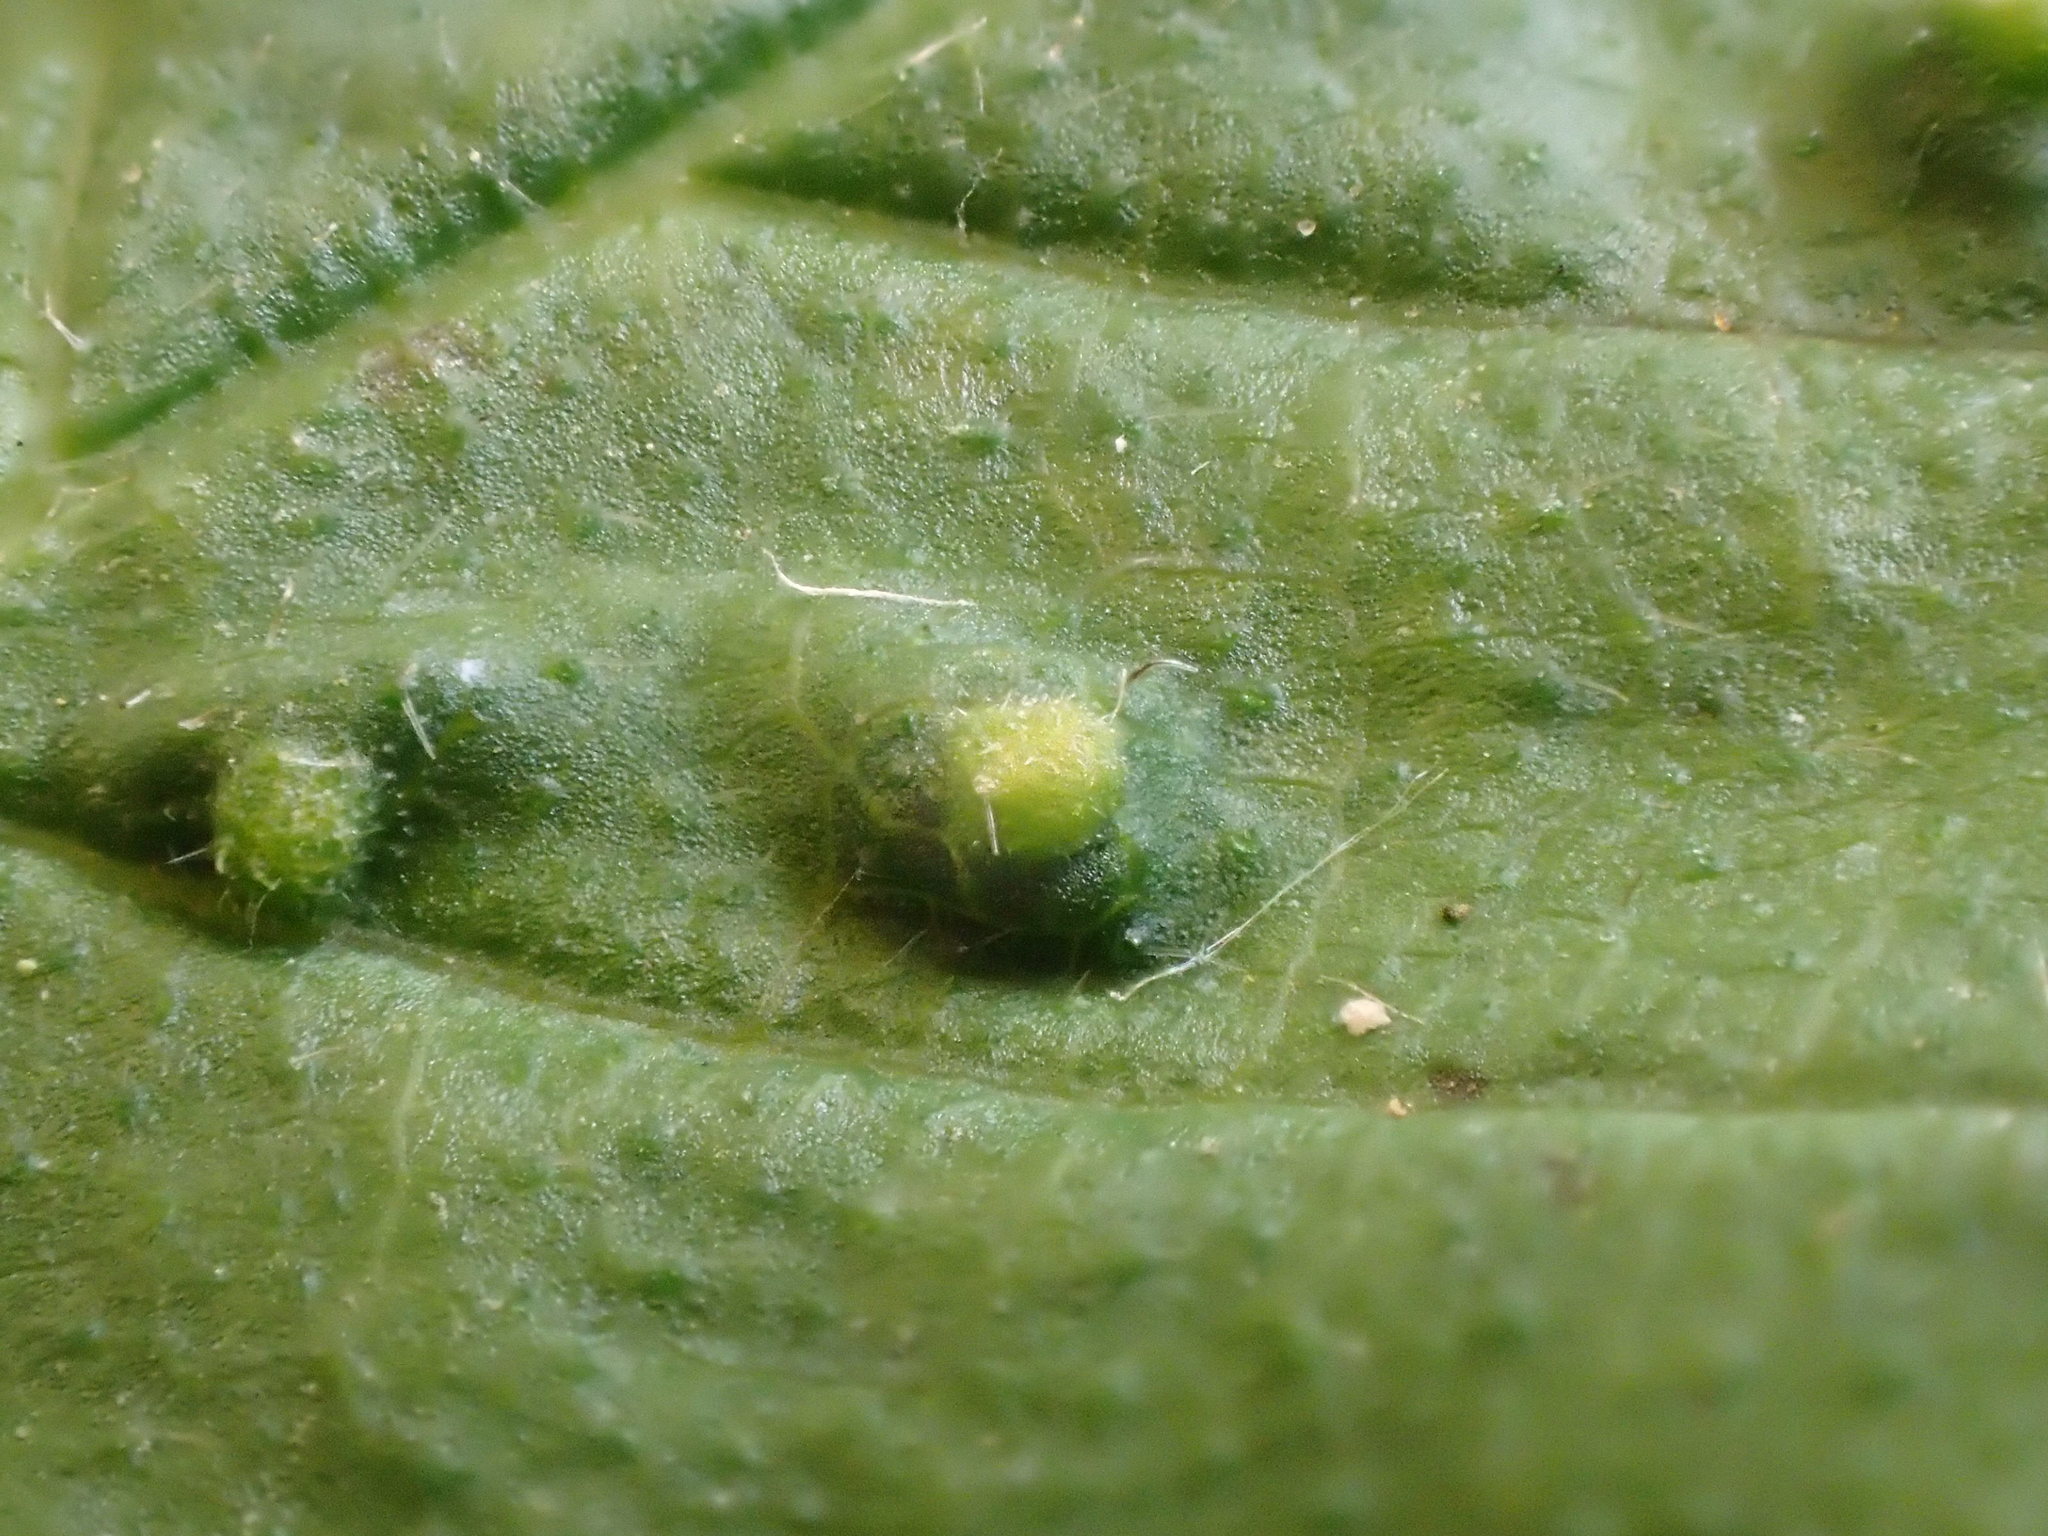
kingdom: Animalia
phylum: Arthropoda
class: Arachnida
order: Trombidiformes
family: Eriophyidae
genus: Aceria
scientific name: Aceria brevipunctata
